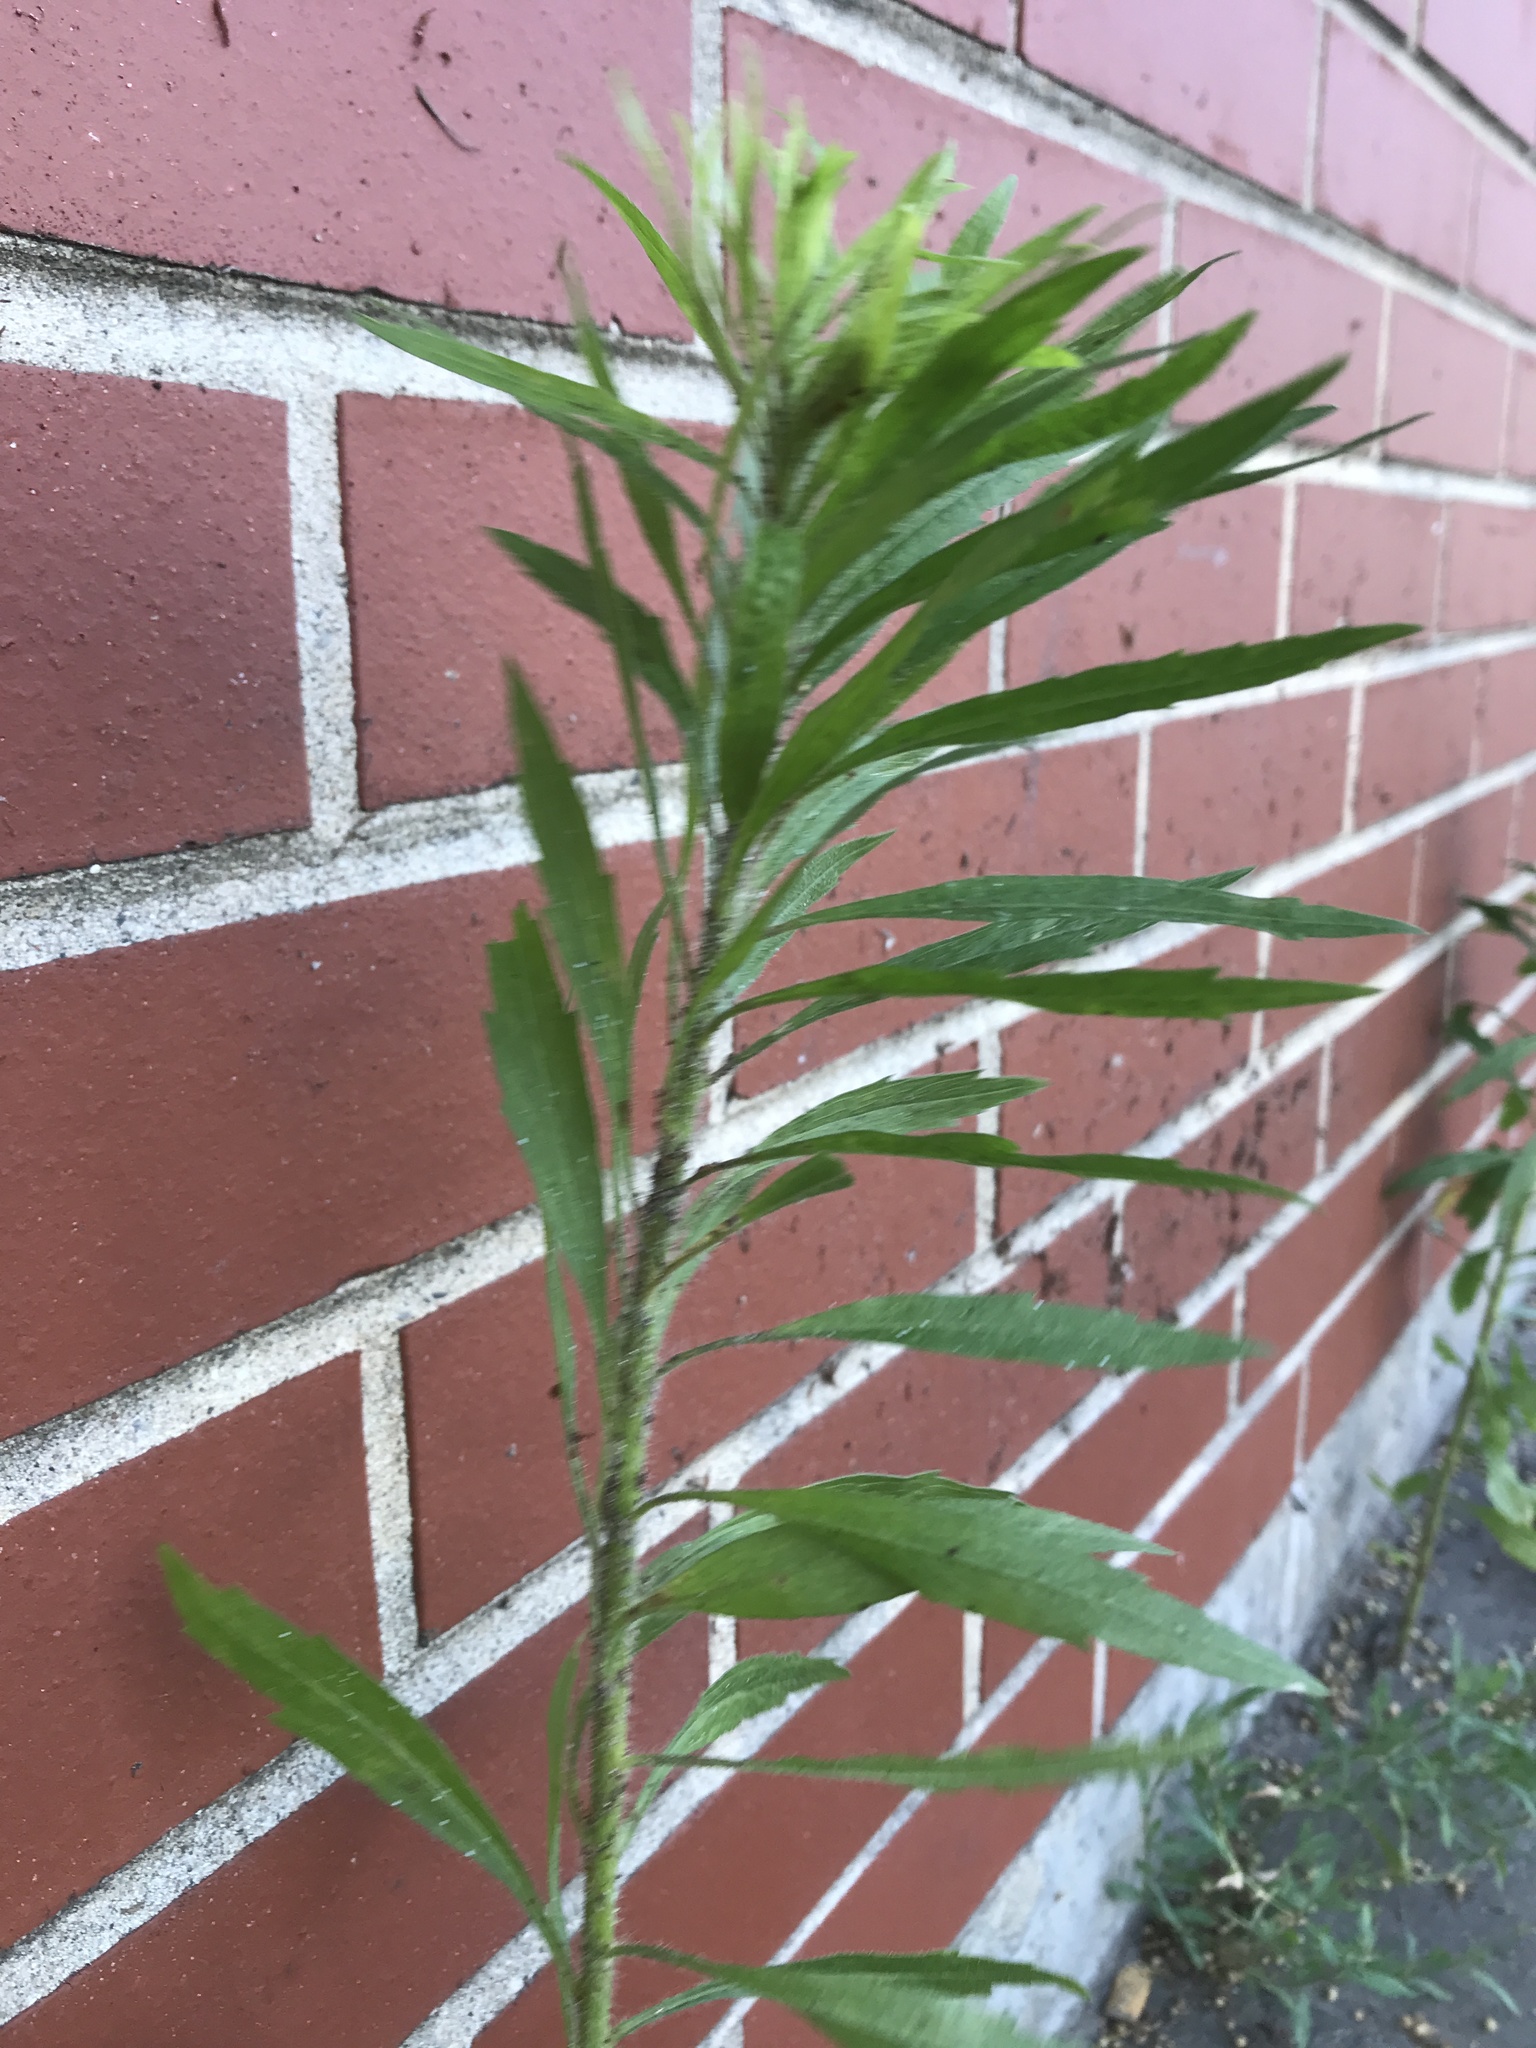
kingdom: Plantae
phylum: Tracheophyta
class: Magnoliopsida
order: Asterales
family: Asteraceae
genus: Erigeron
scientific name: Erigeron canadensis
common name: Canadian fleabane
